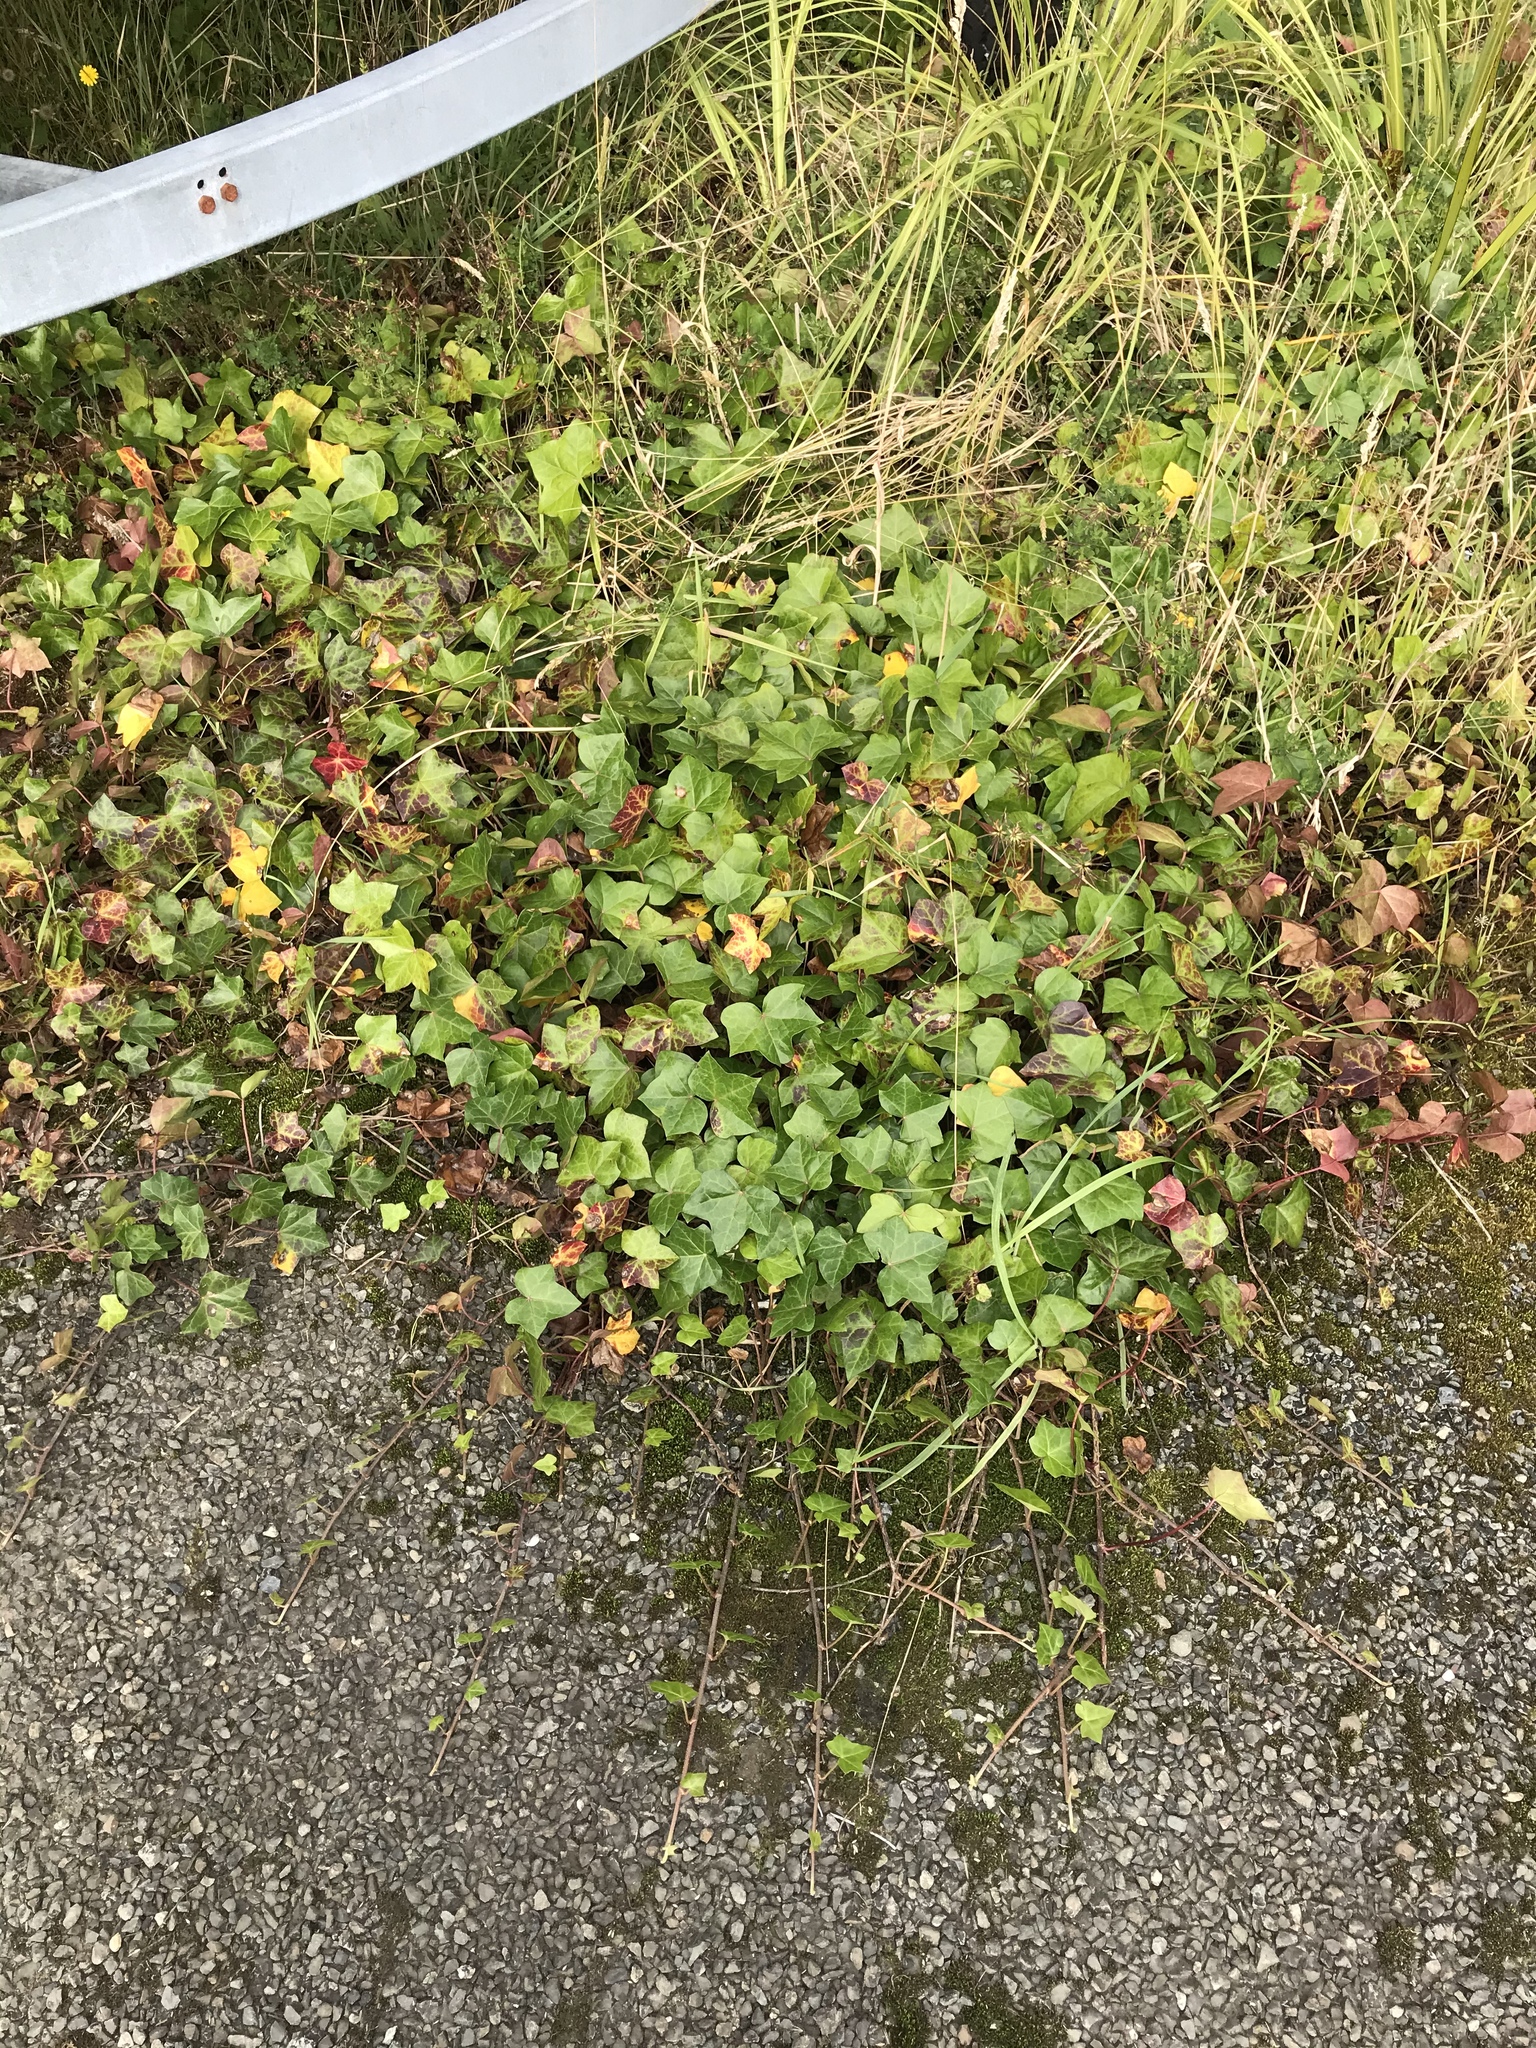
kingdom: Plantae
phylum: Tracheophyta
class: Magnoliopsida
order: Apiales
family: Araliaceae
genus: Hedera
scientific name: Hedera helix
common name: Ivy
